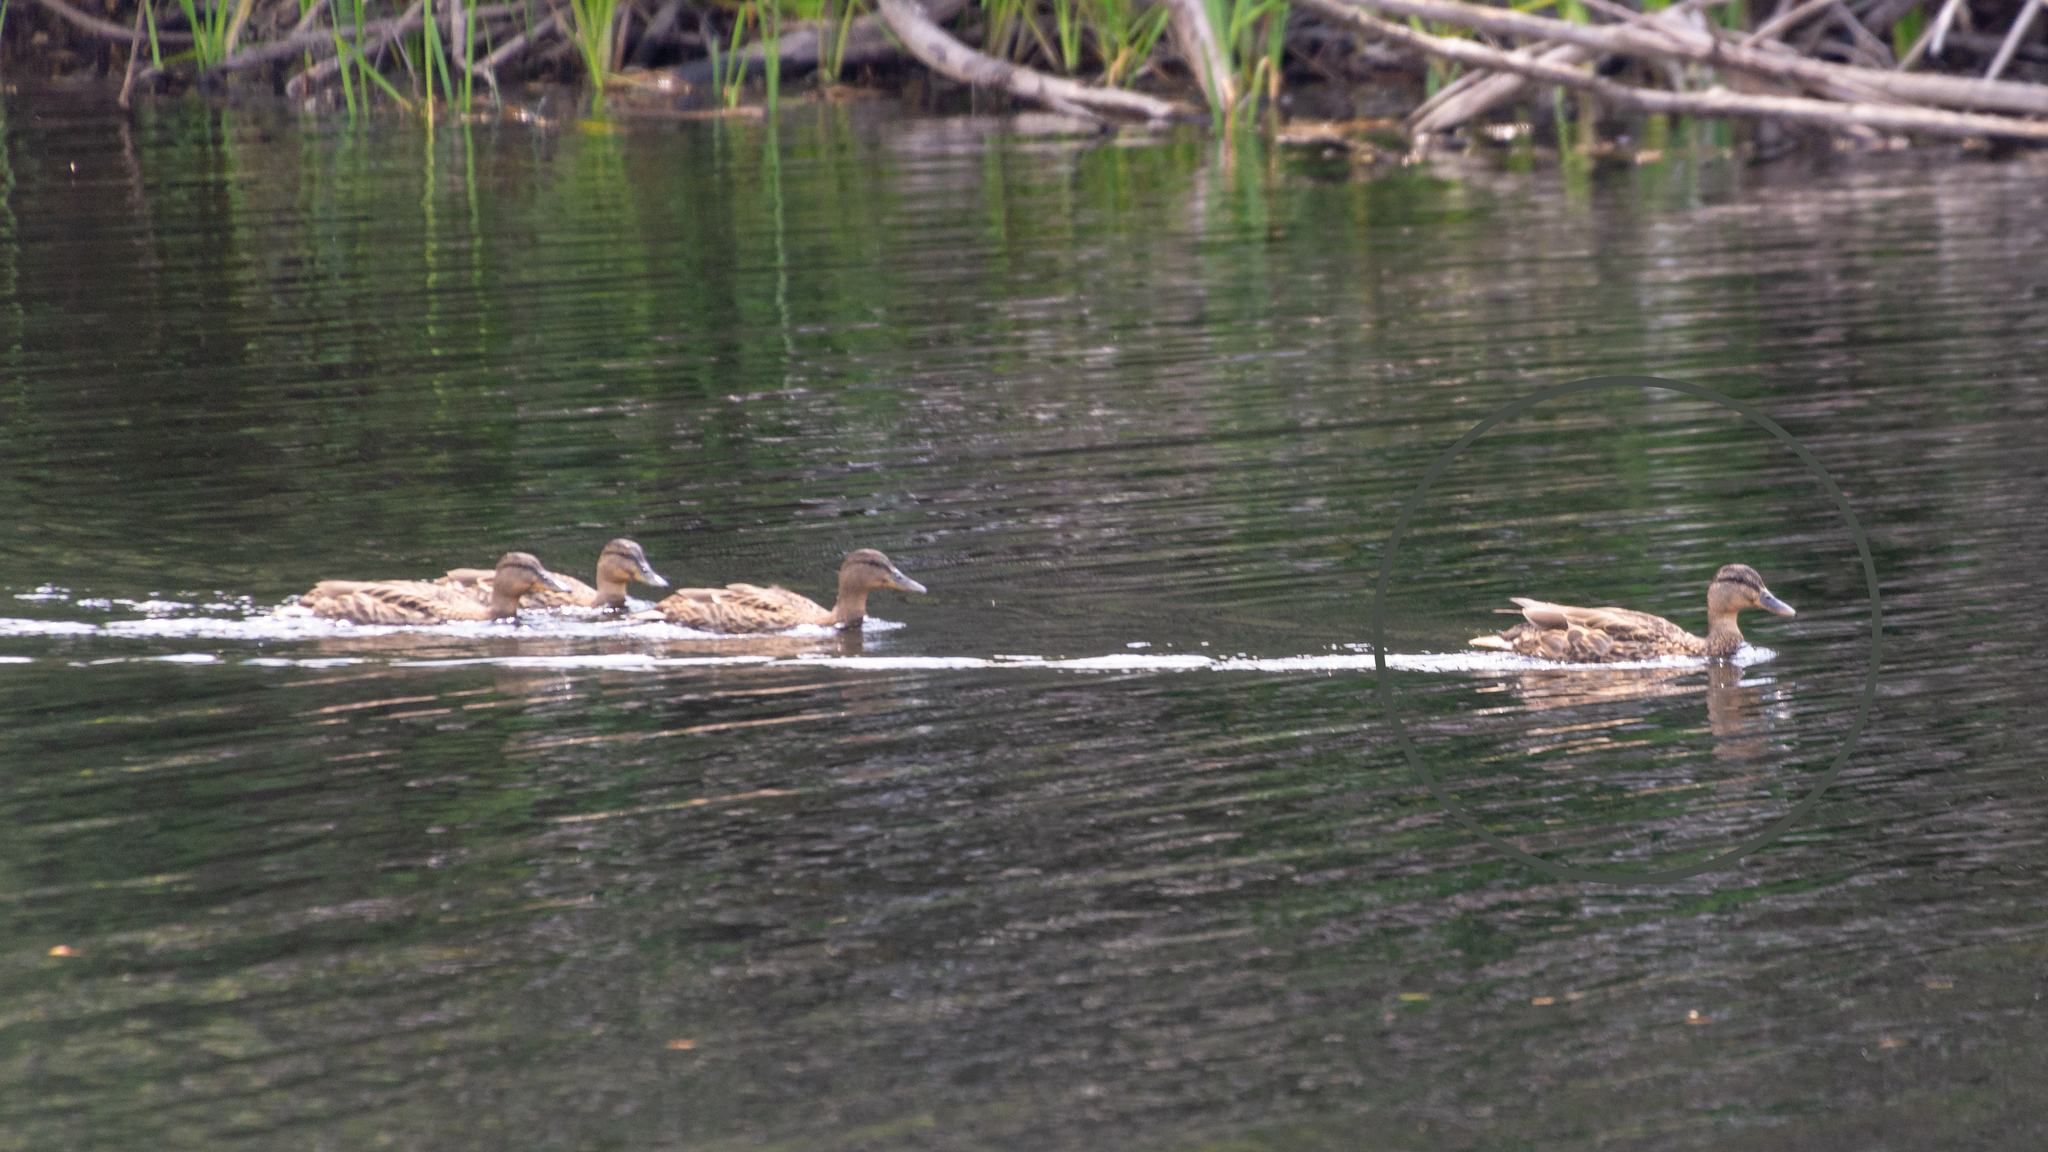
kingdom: Animalia
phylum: Chordata
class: Aves
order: Anseriformes
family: Anatidae
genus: Anas
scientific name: Anas platyrhynchos
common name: Mallard
